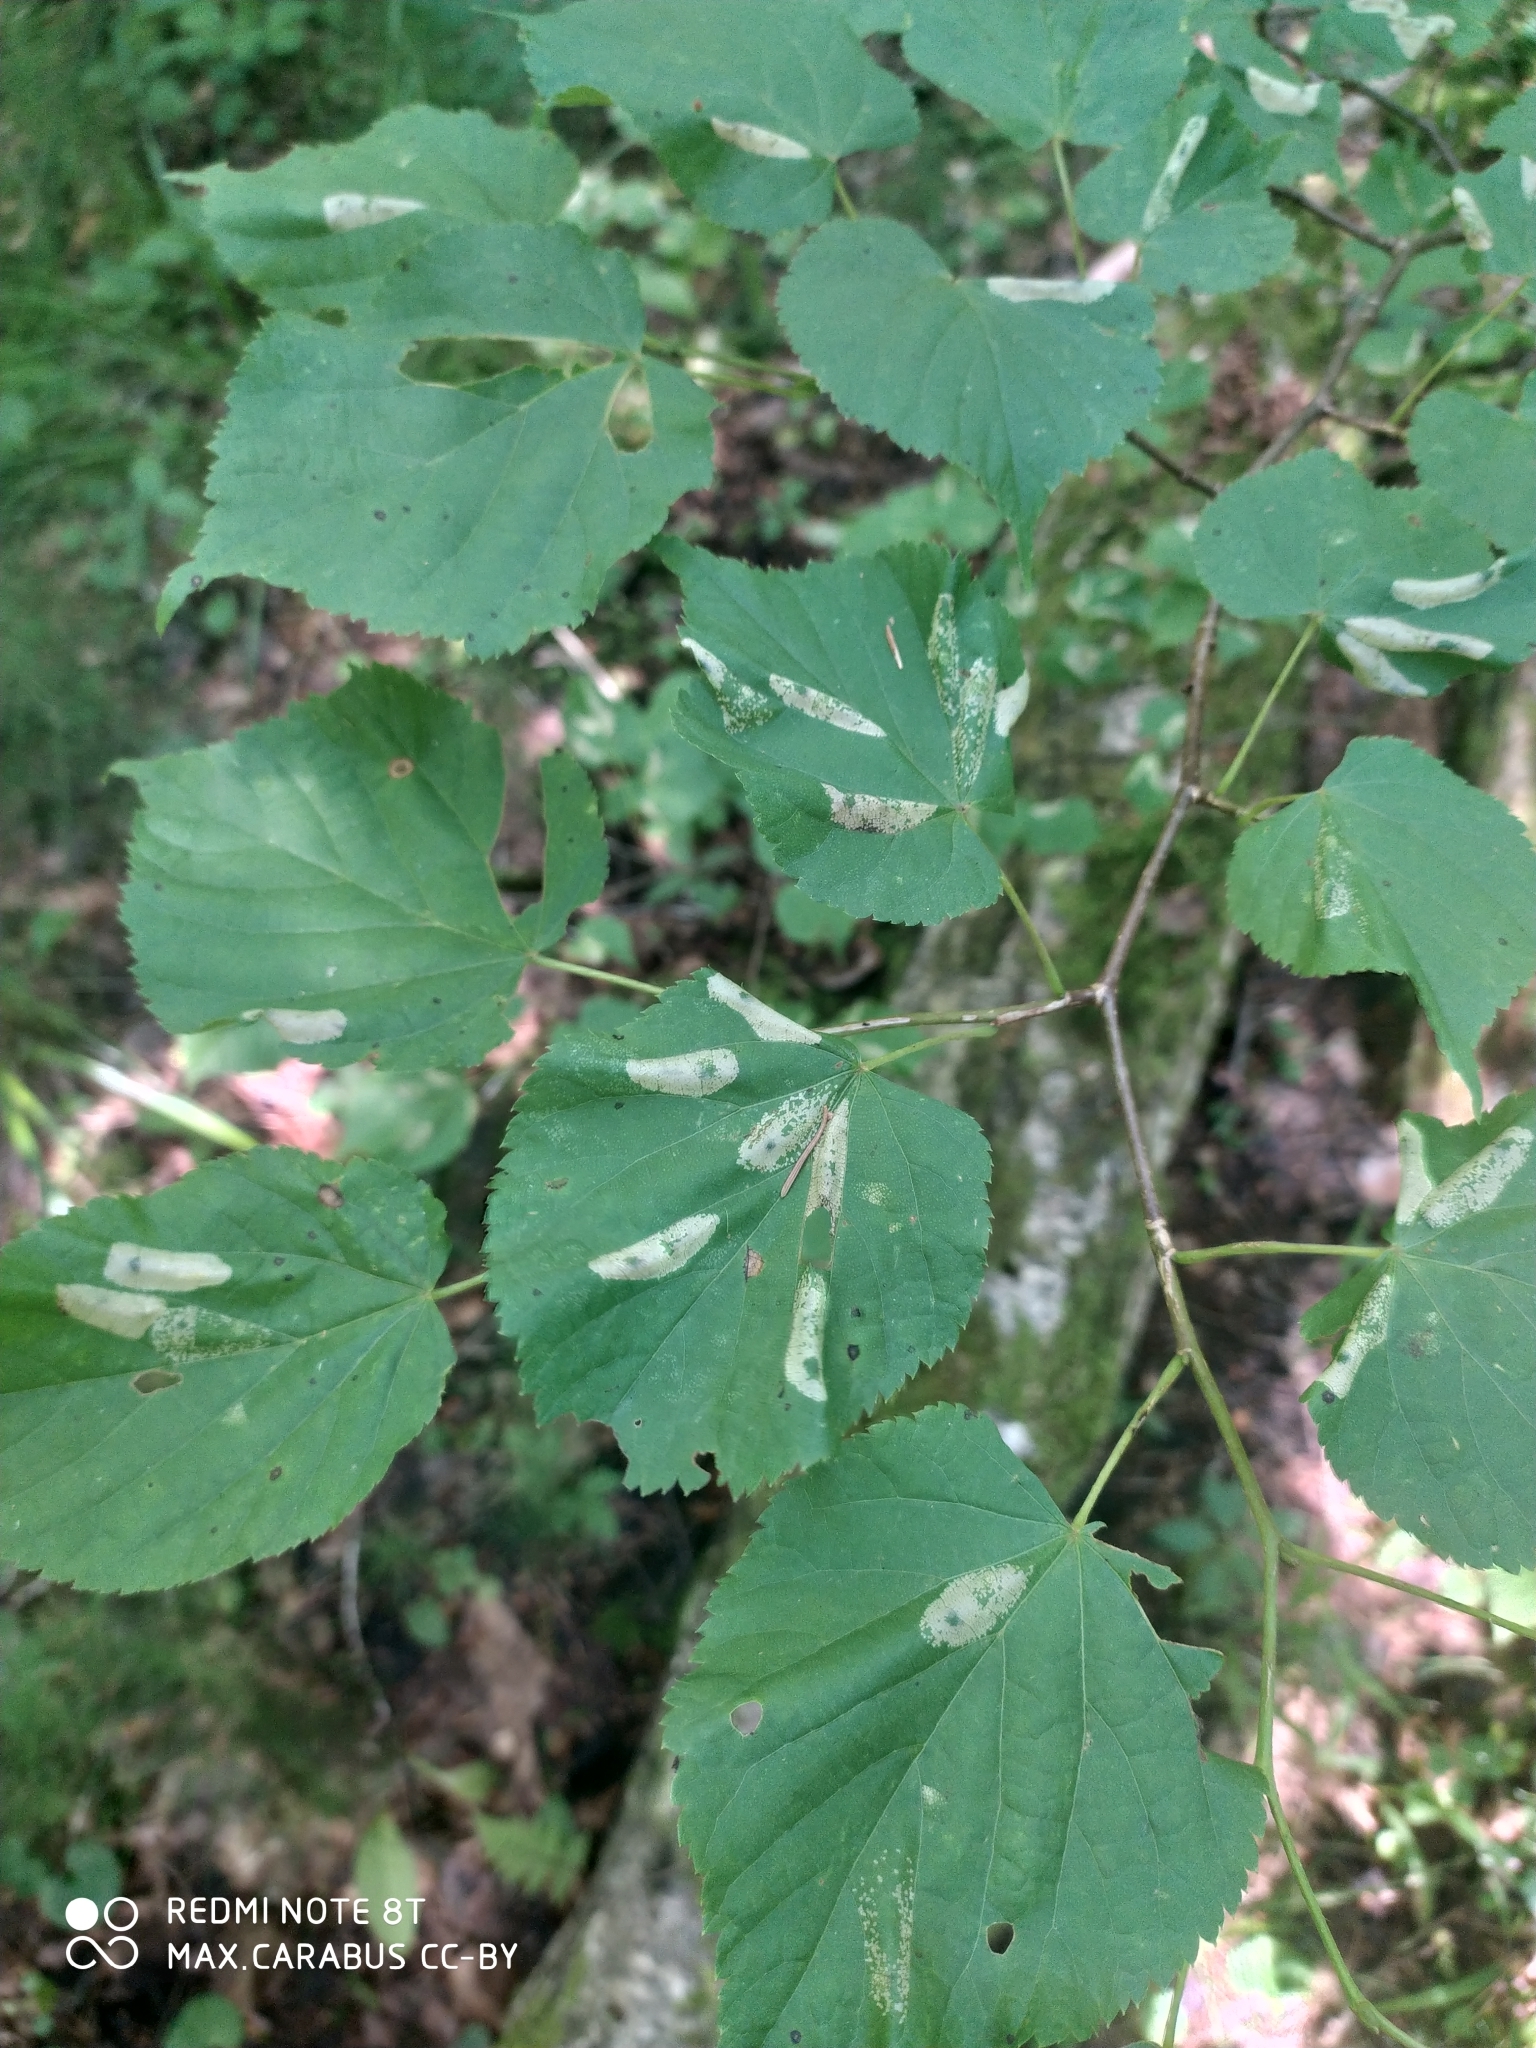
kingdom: Plantae
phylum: Tracheophyta
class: Magnoliopsida
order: Malvales
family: Malvaceae
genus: Tilia
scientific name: Tilia cordata
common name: Small-leaved lime
